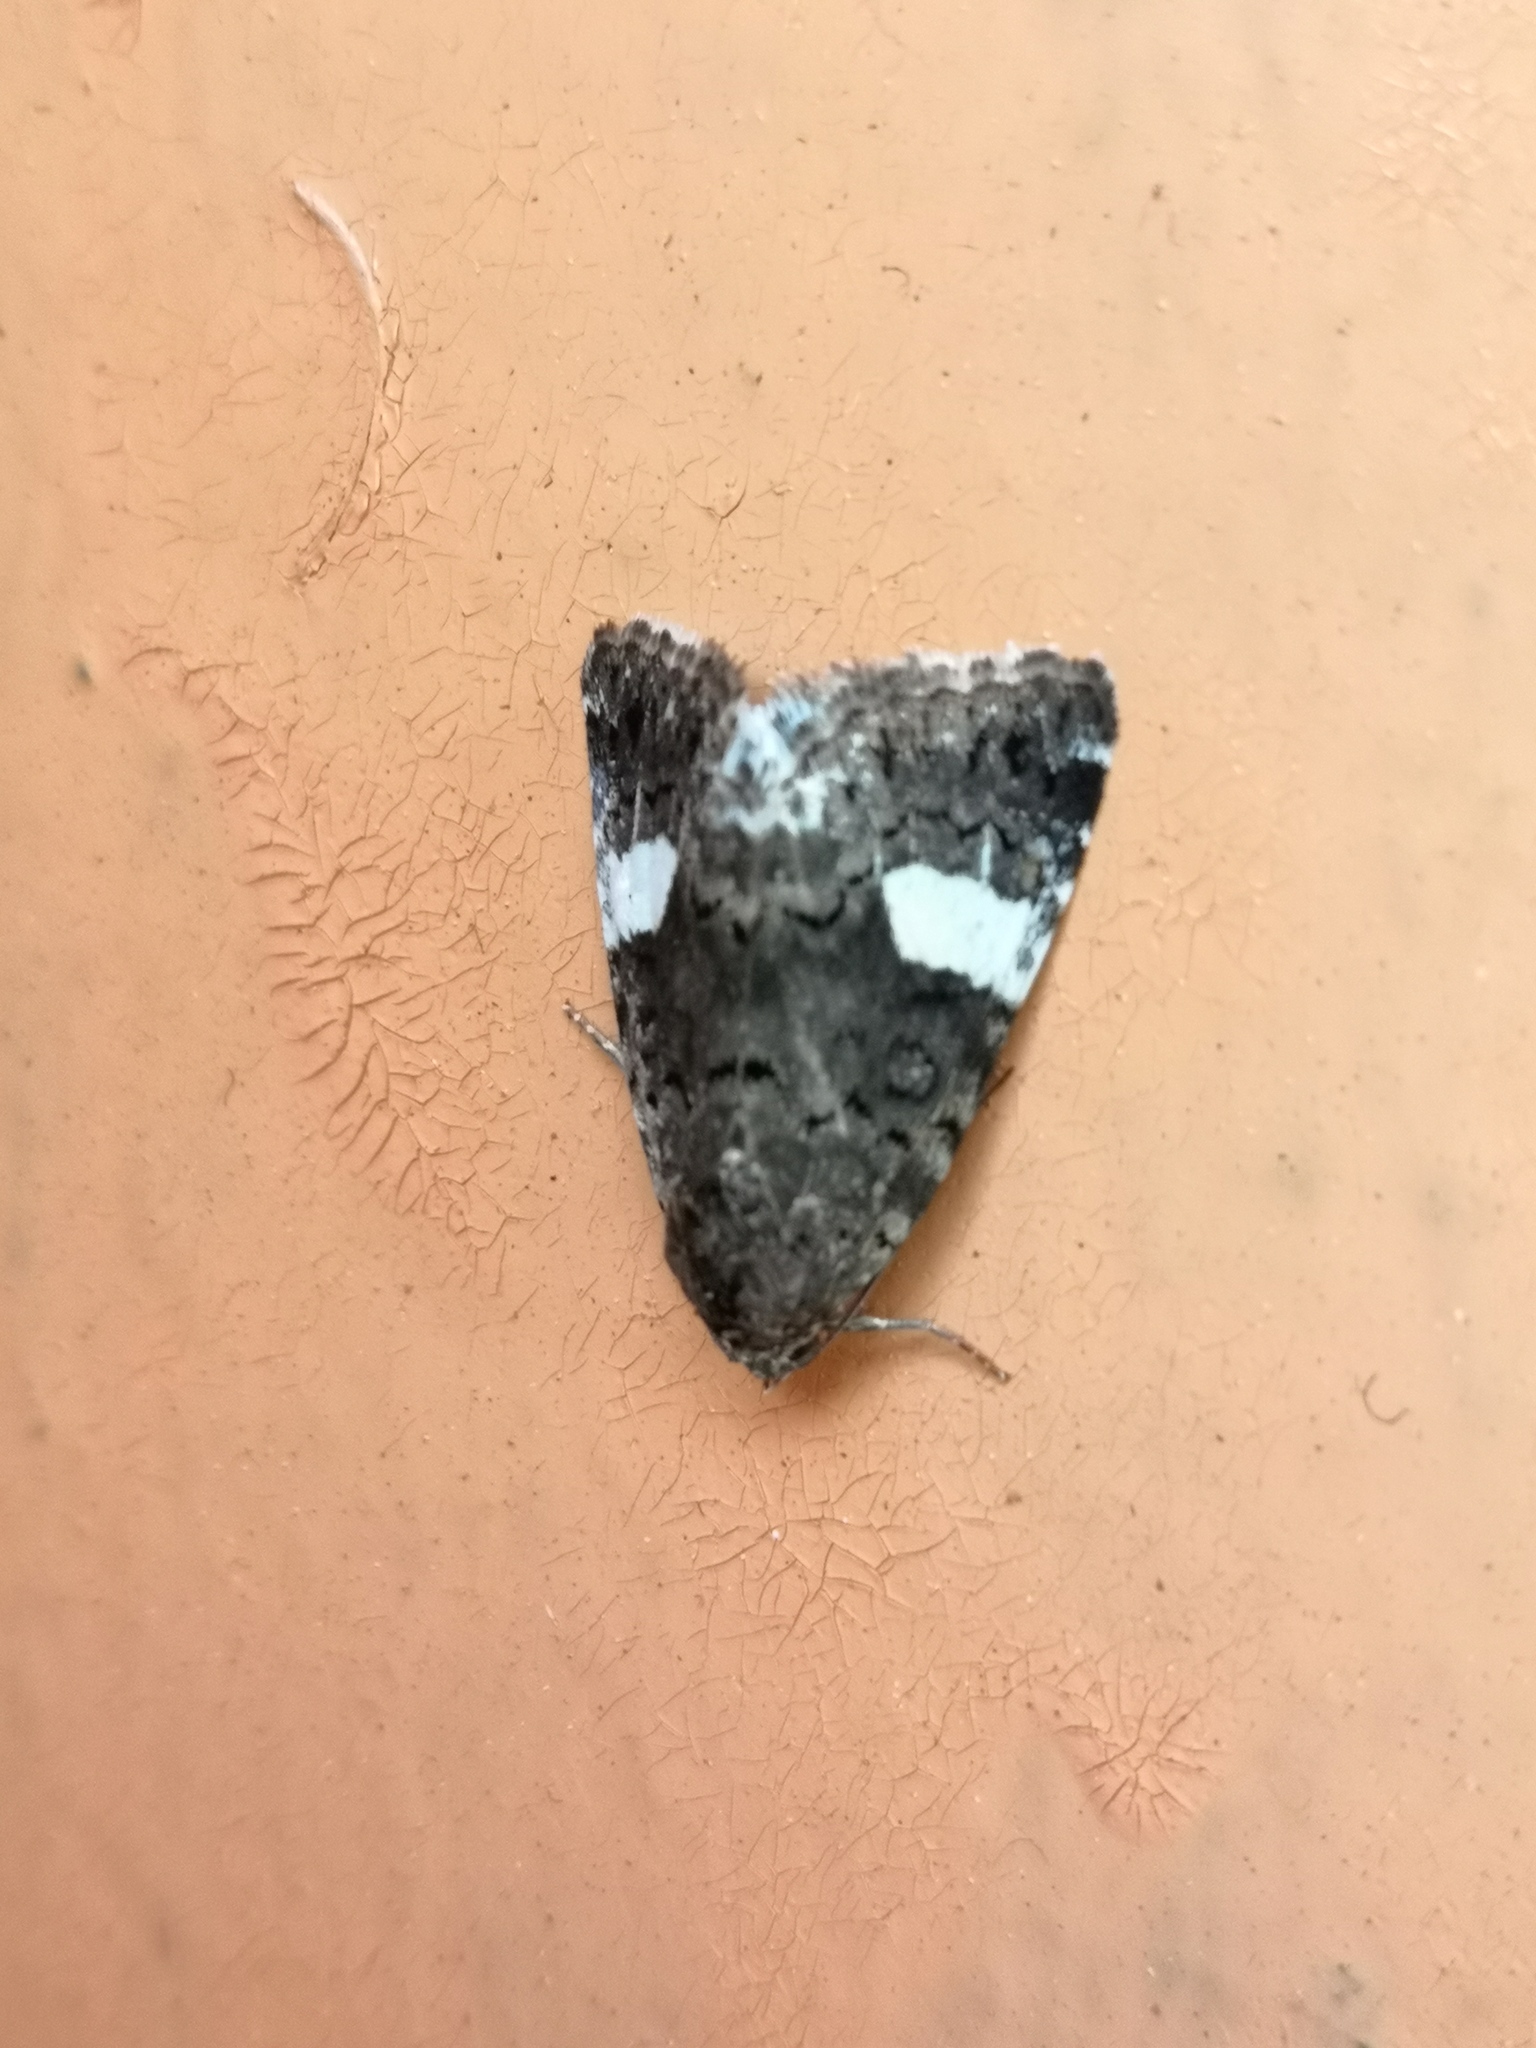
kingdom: Animalia
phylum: Arthropoda
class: Insecta
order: Lepidoptera
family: Erebidae
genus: Tyta
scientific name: Tyta luctuosa
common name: Four-spotted
